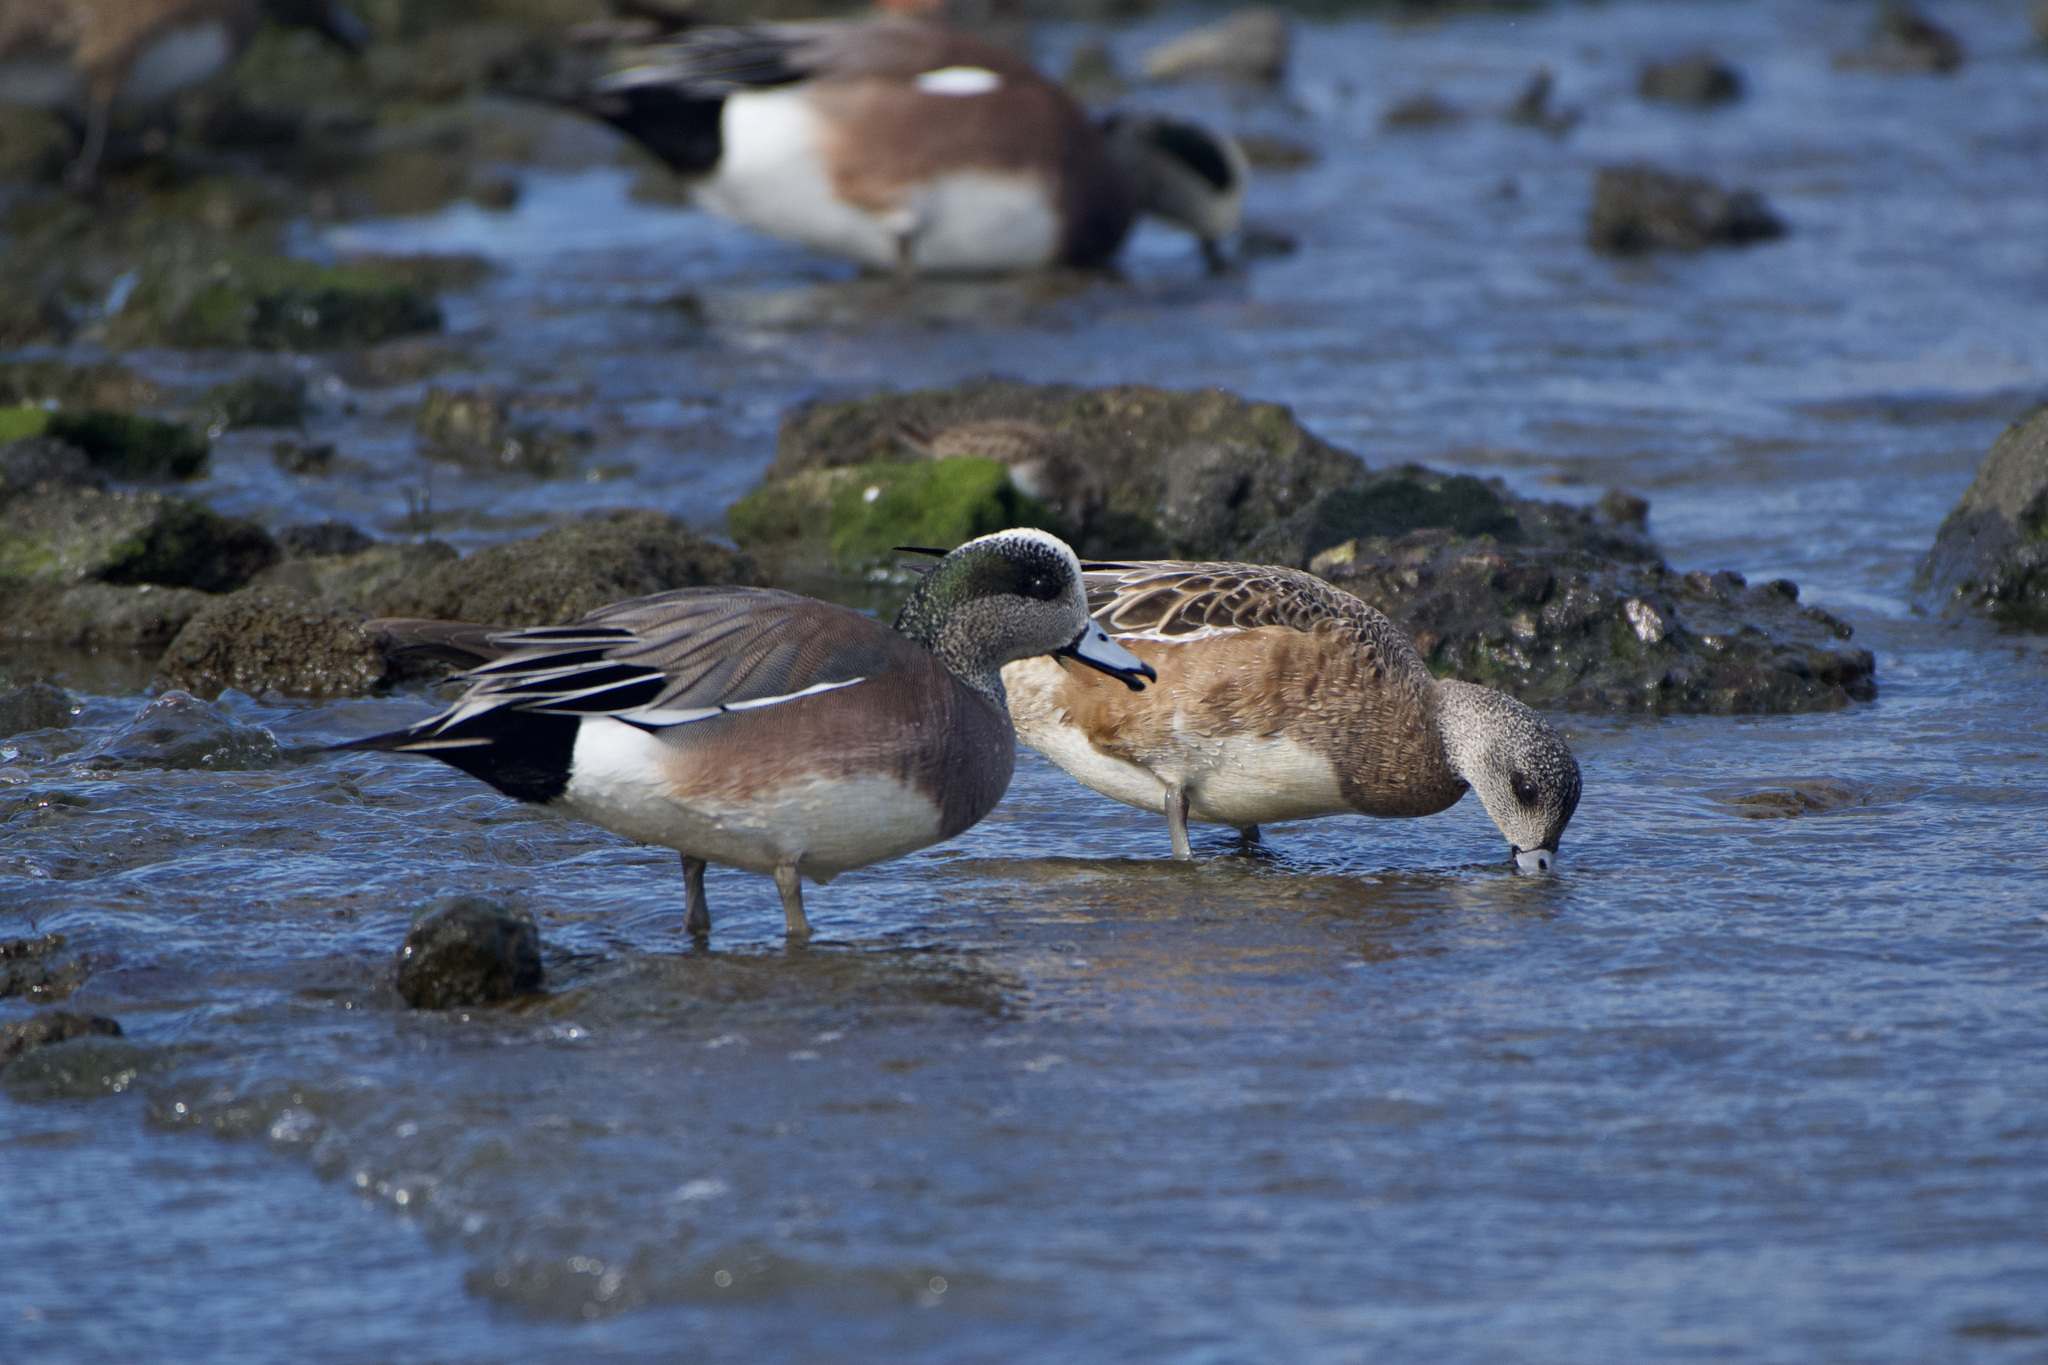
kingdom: Animalia
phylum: Chordata
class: Aves
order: Anseriformes
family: Anatidae
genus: Mareca
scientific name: Mareca americana
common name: American wigeon
